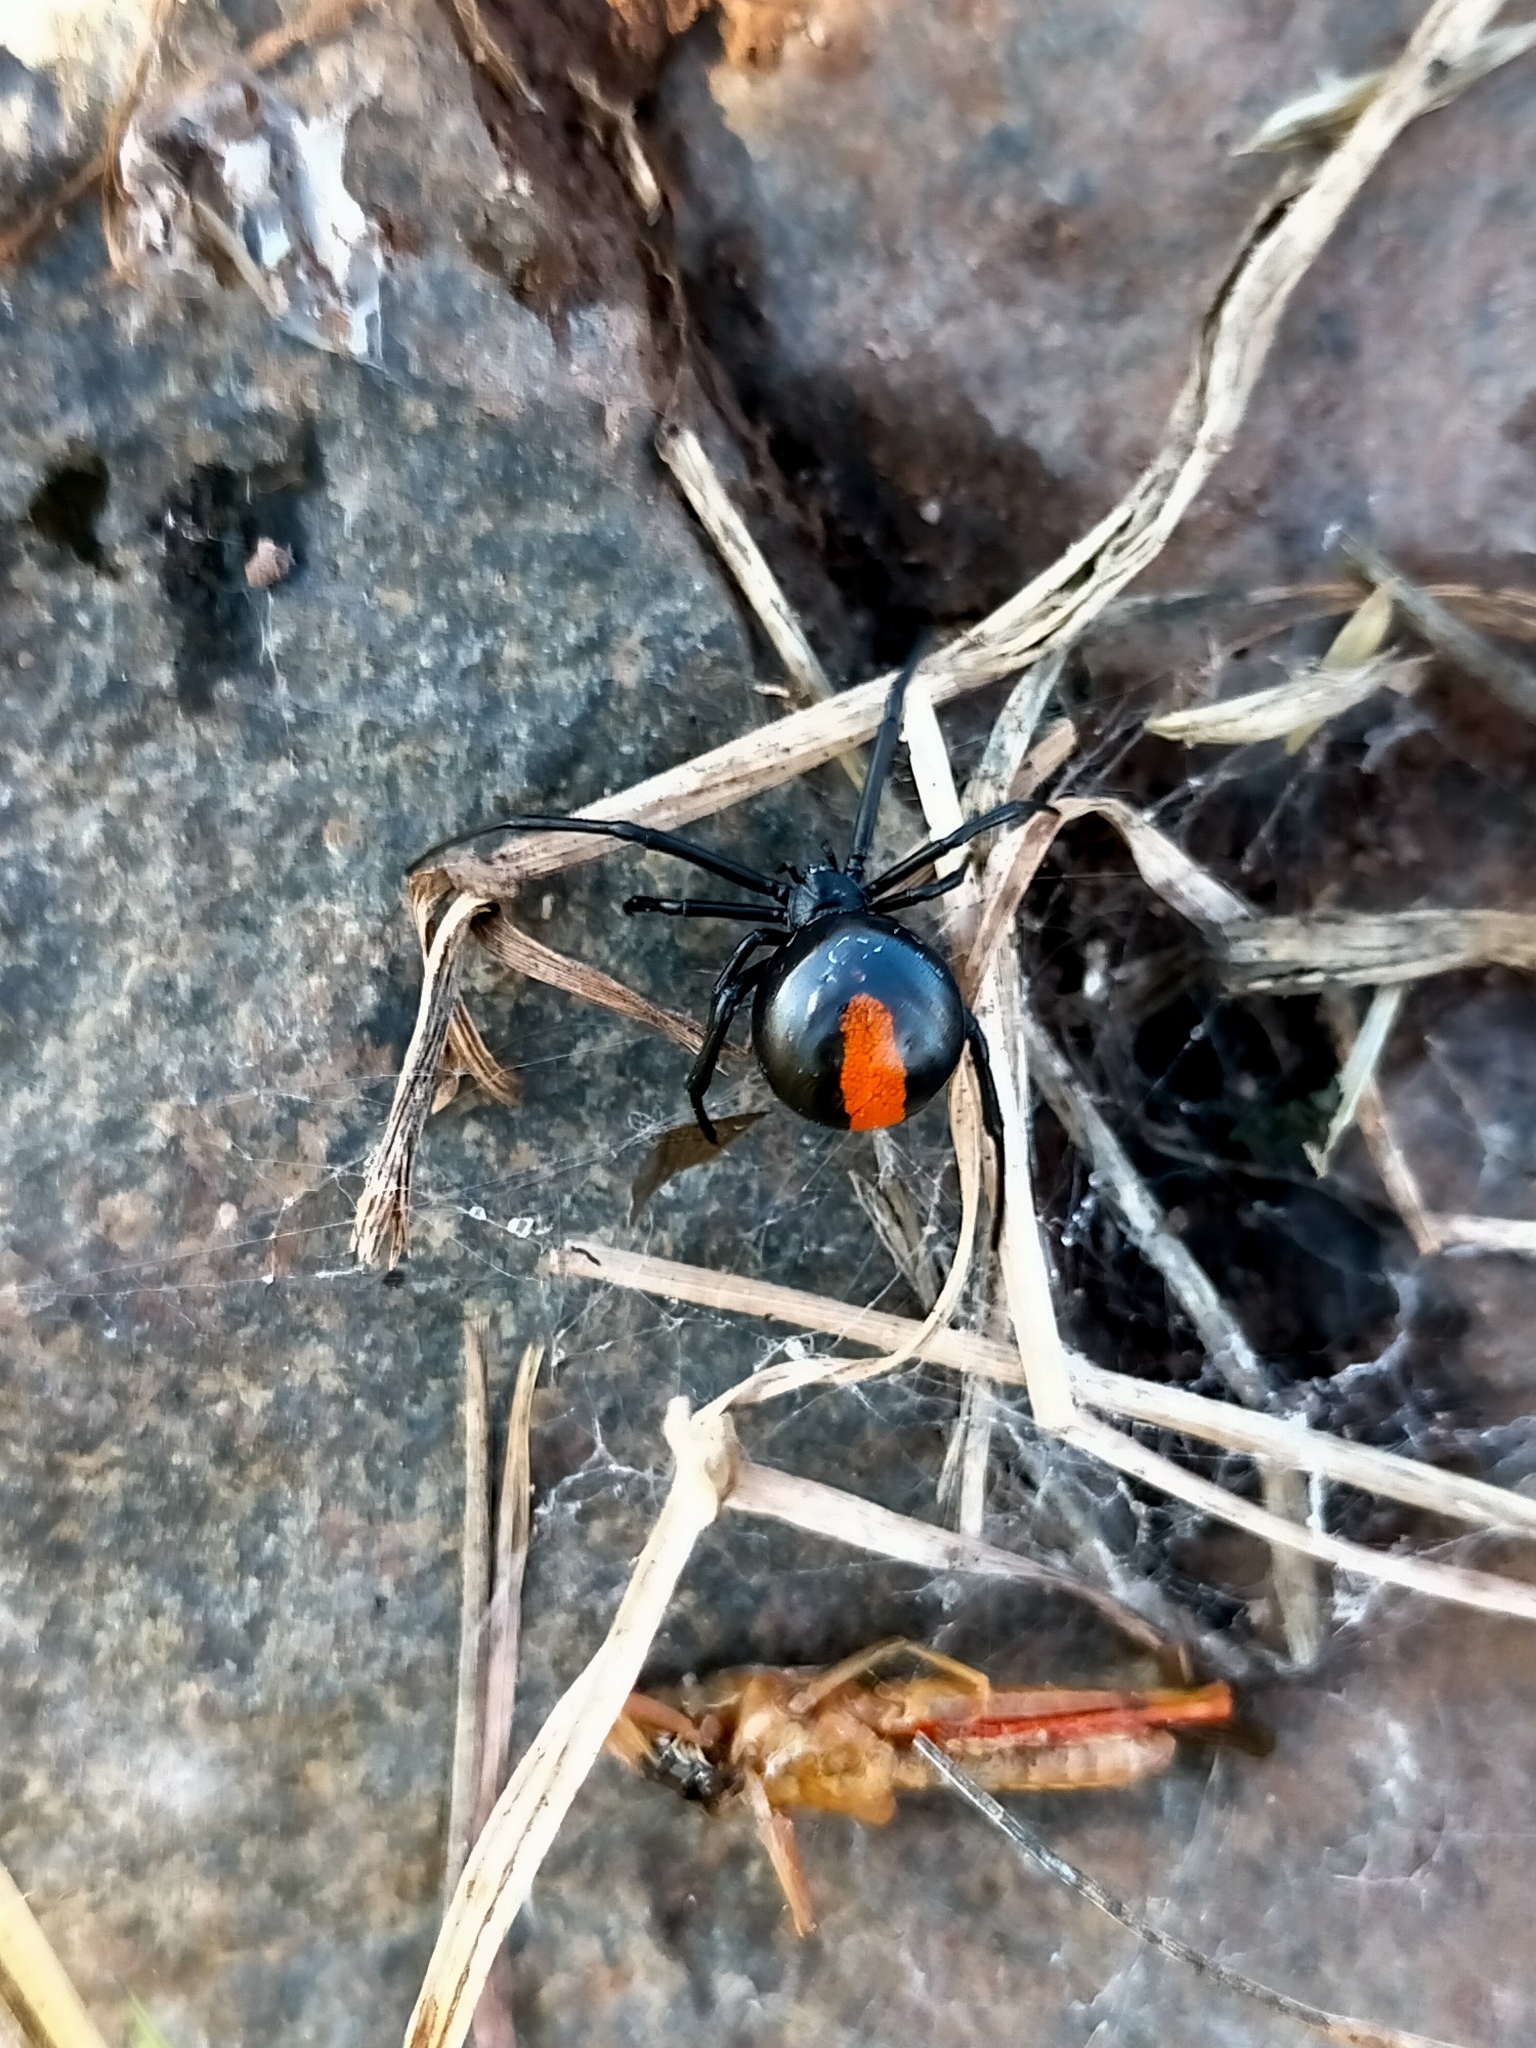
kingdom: Animalia
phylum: Arthropoda
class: Arachnida
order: Araneae
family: Theridiidae
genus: Latrodectus
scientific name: Latrodectus hasselti
